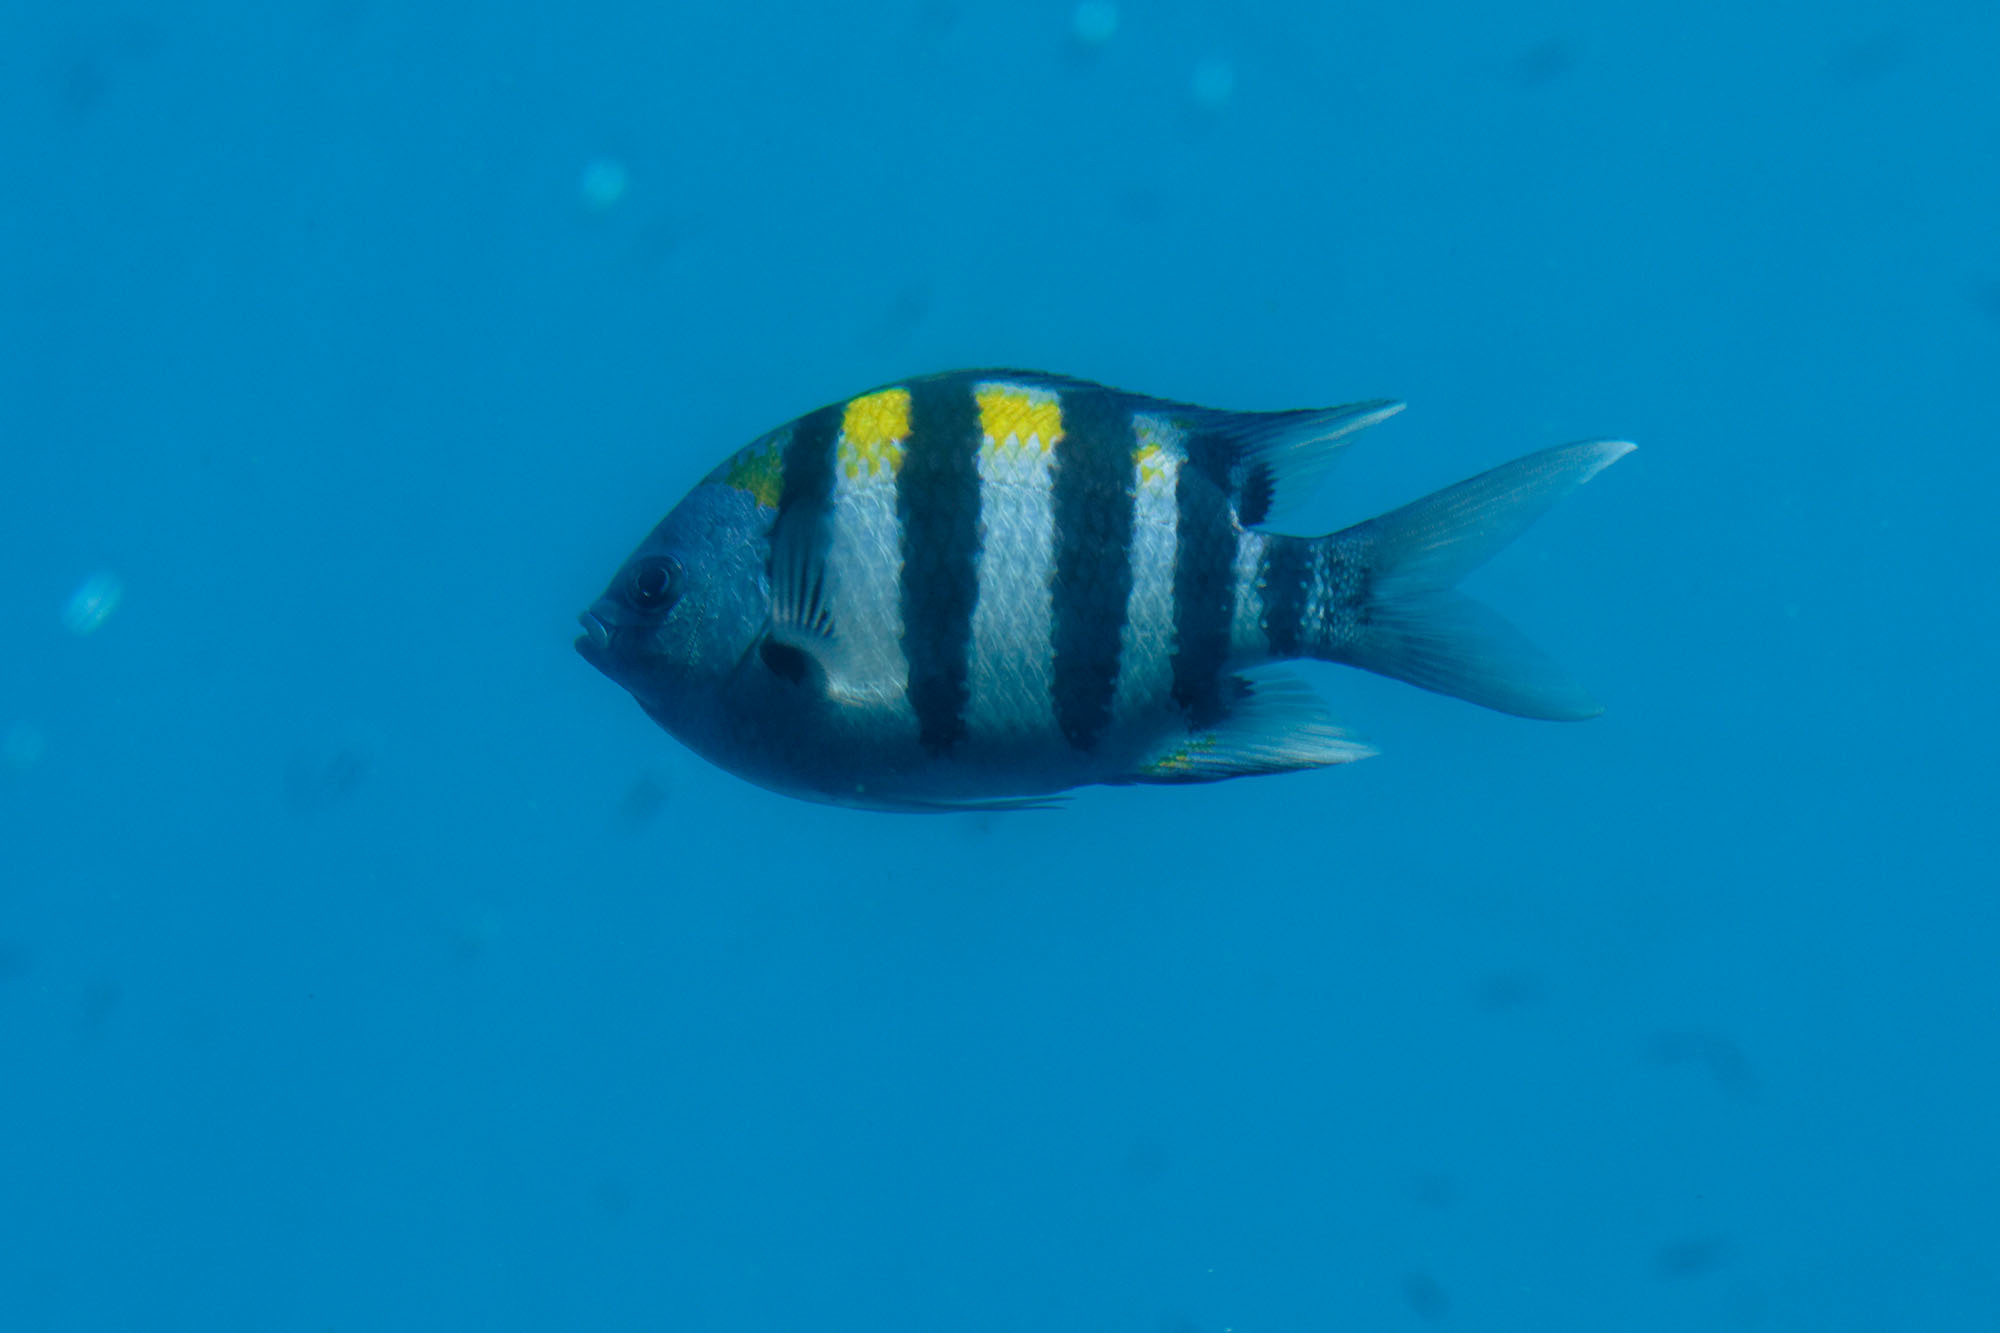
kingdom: Animalia
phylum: Chordata
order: Perciformes
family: Pomacentridae
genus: Abudefduf
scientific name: Abudefduf vaigiensis
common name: Indo-pacific sergeant
